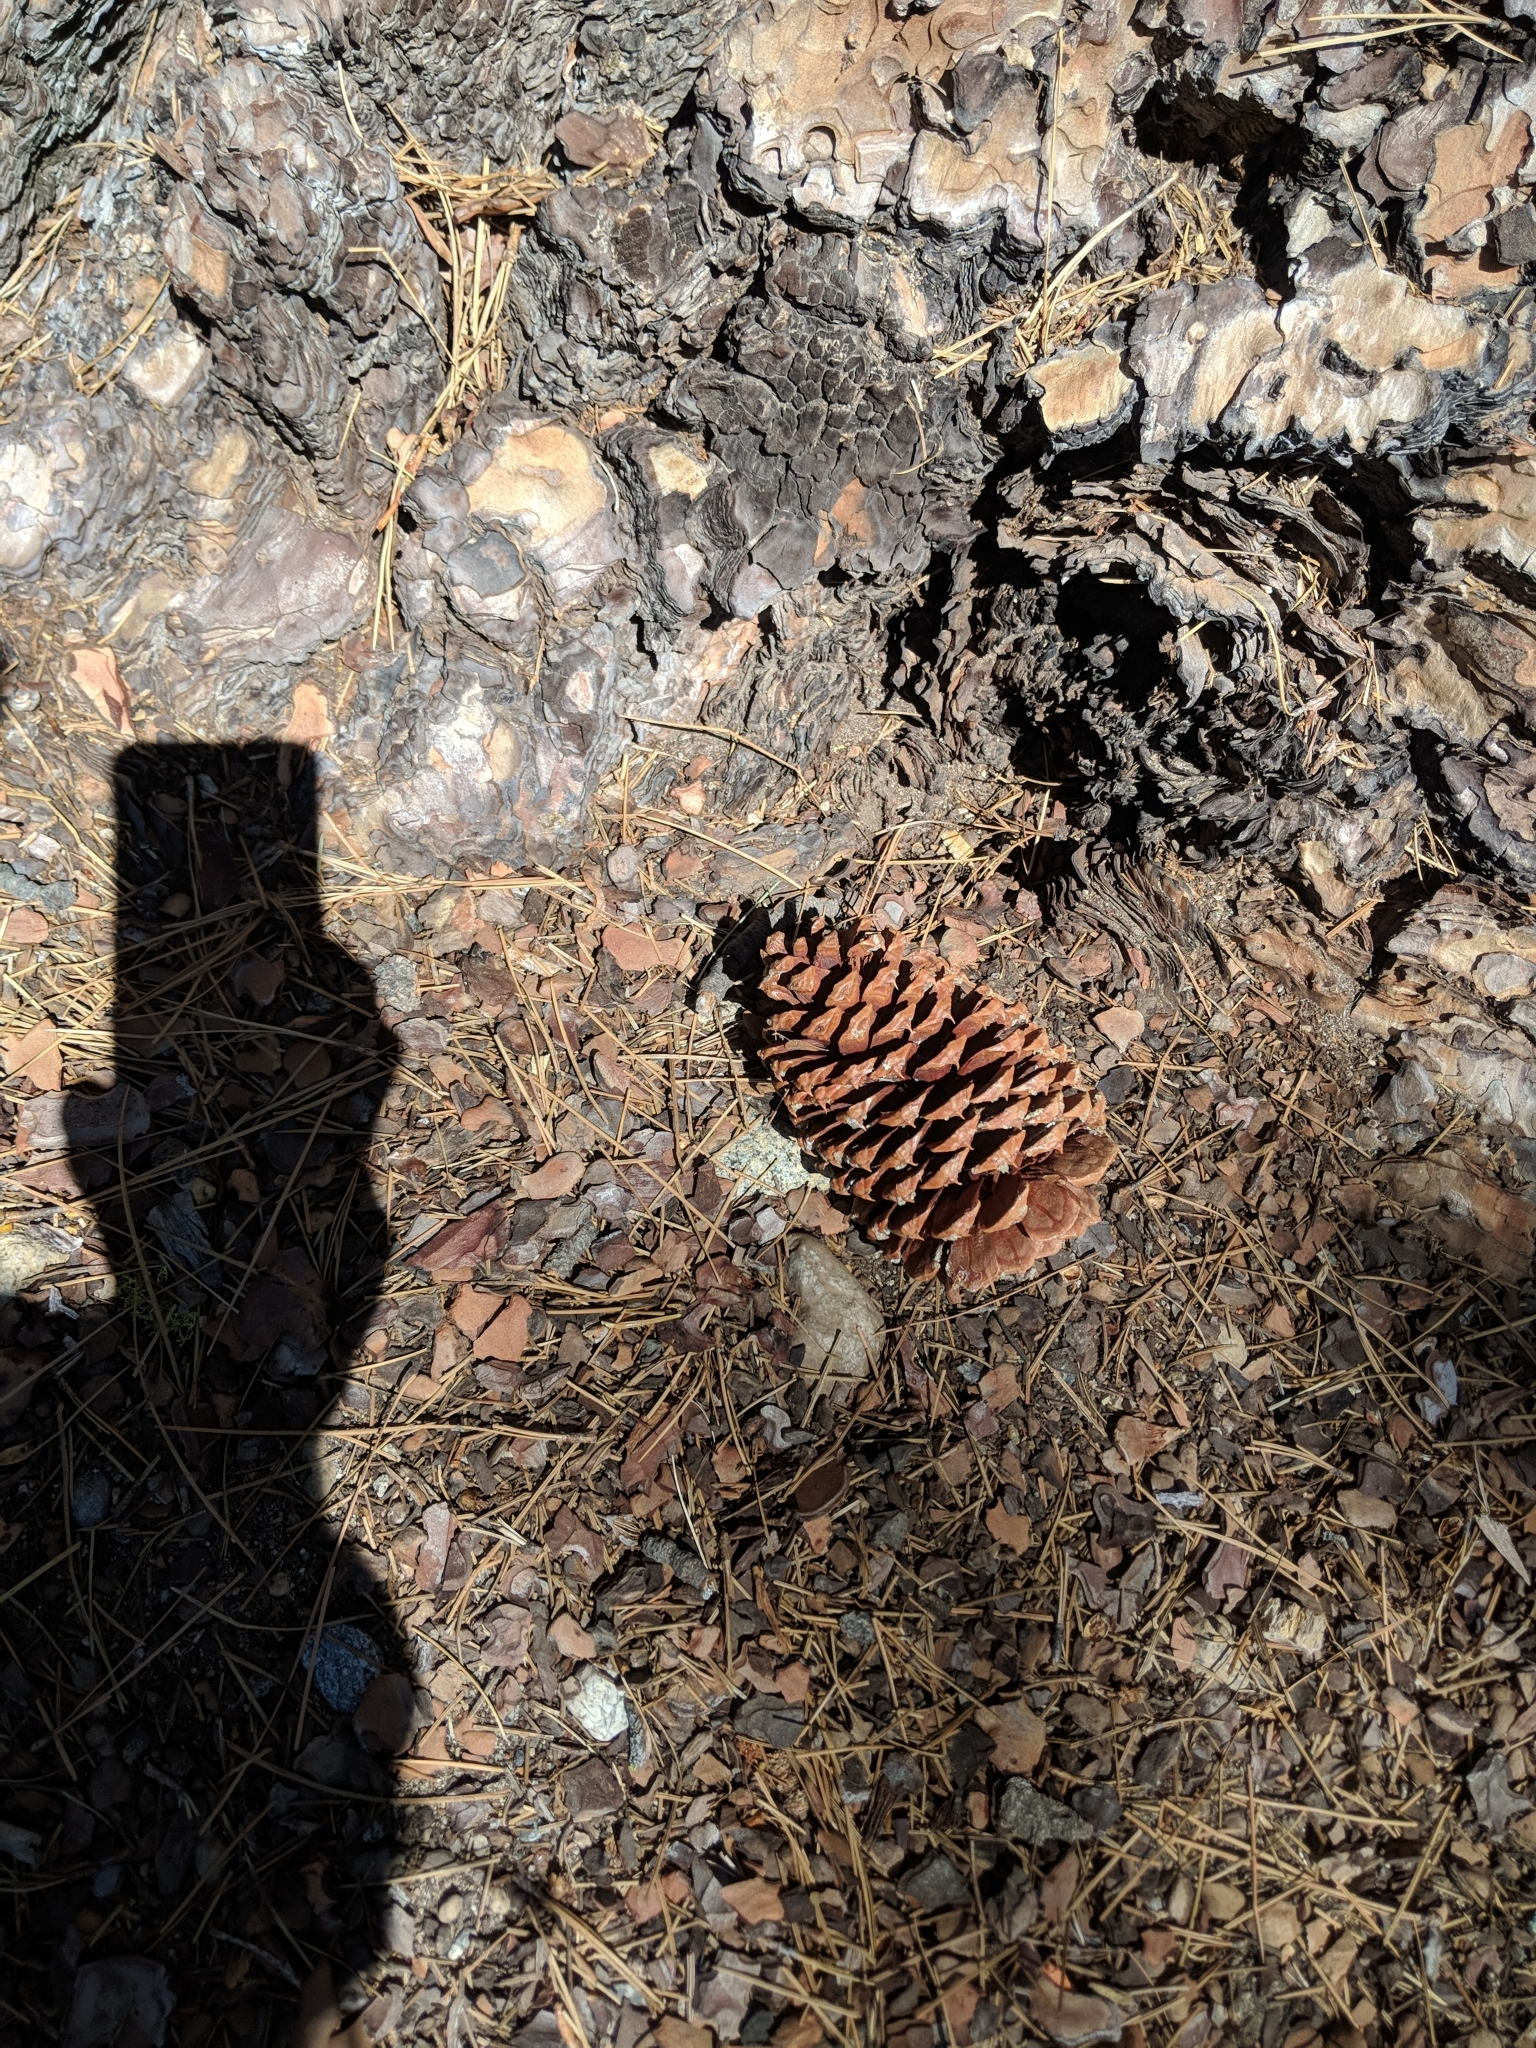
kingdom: Plantae
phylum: Tracheophyta
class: Pinopsida
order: Pinales
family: Pinaceae
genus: Pinus
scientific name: Pinus jeffreyi
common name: Jeffrey pine
